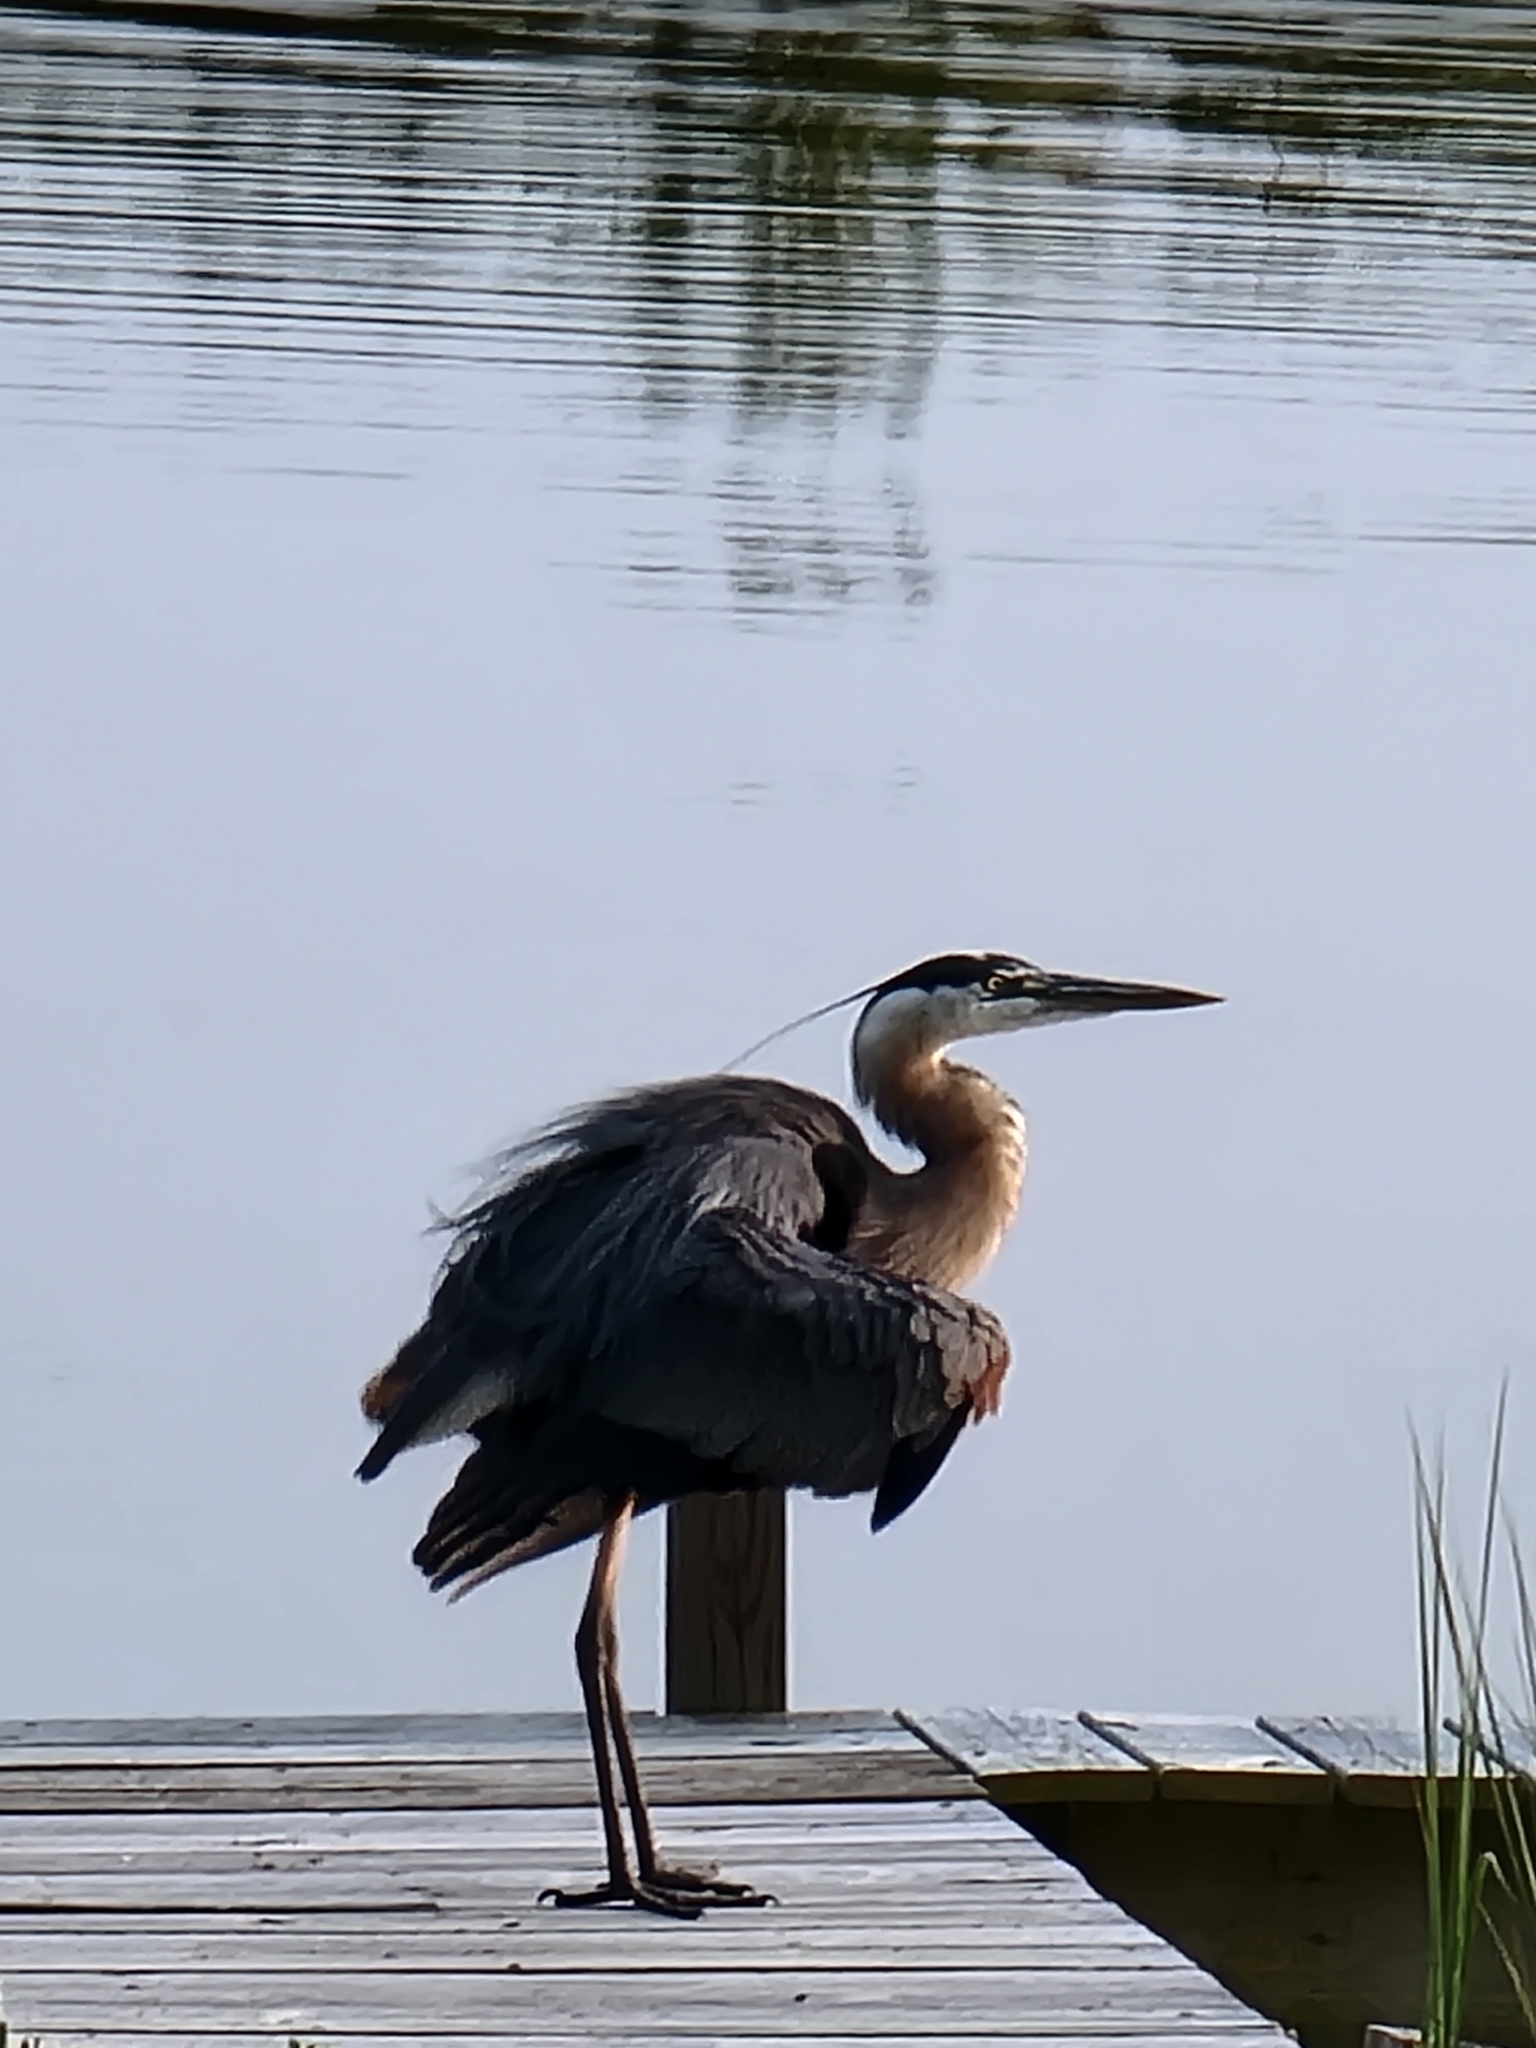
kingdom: Animalia
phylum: Chordata
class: Aves
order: Pelecaniformes
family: Ardeidae
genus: Ardea
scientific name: Ardea herodias
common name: Great blue heron
